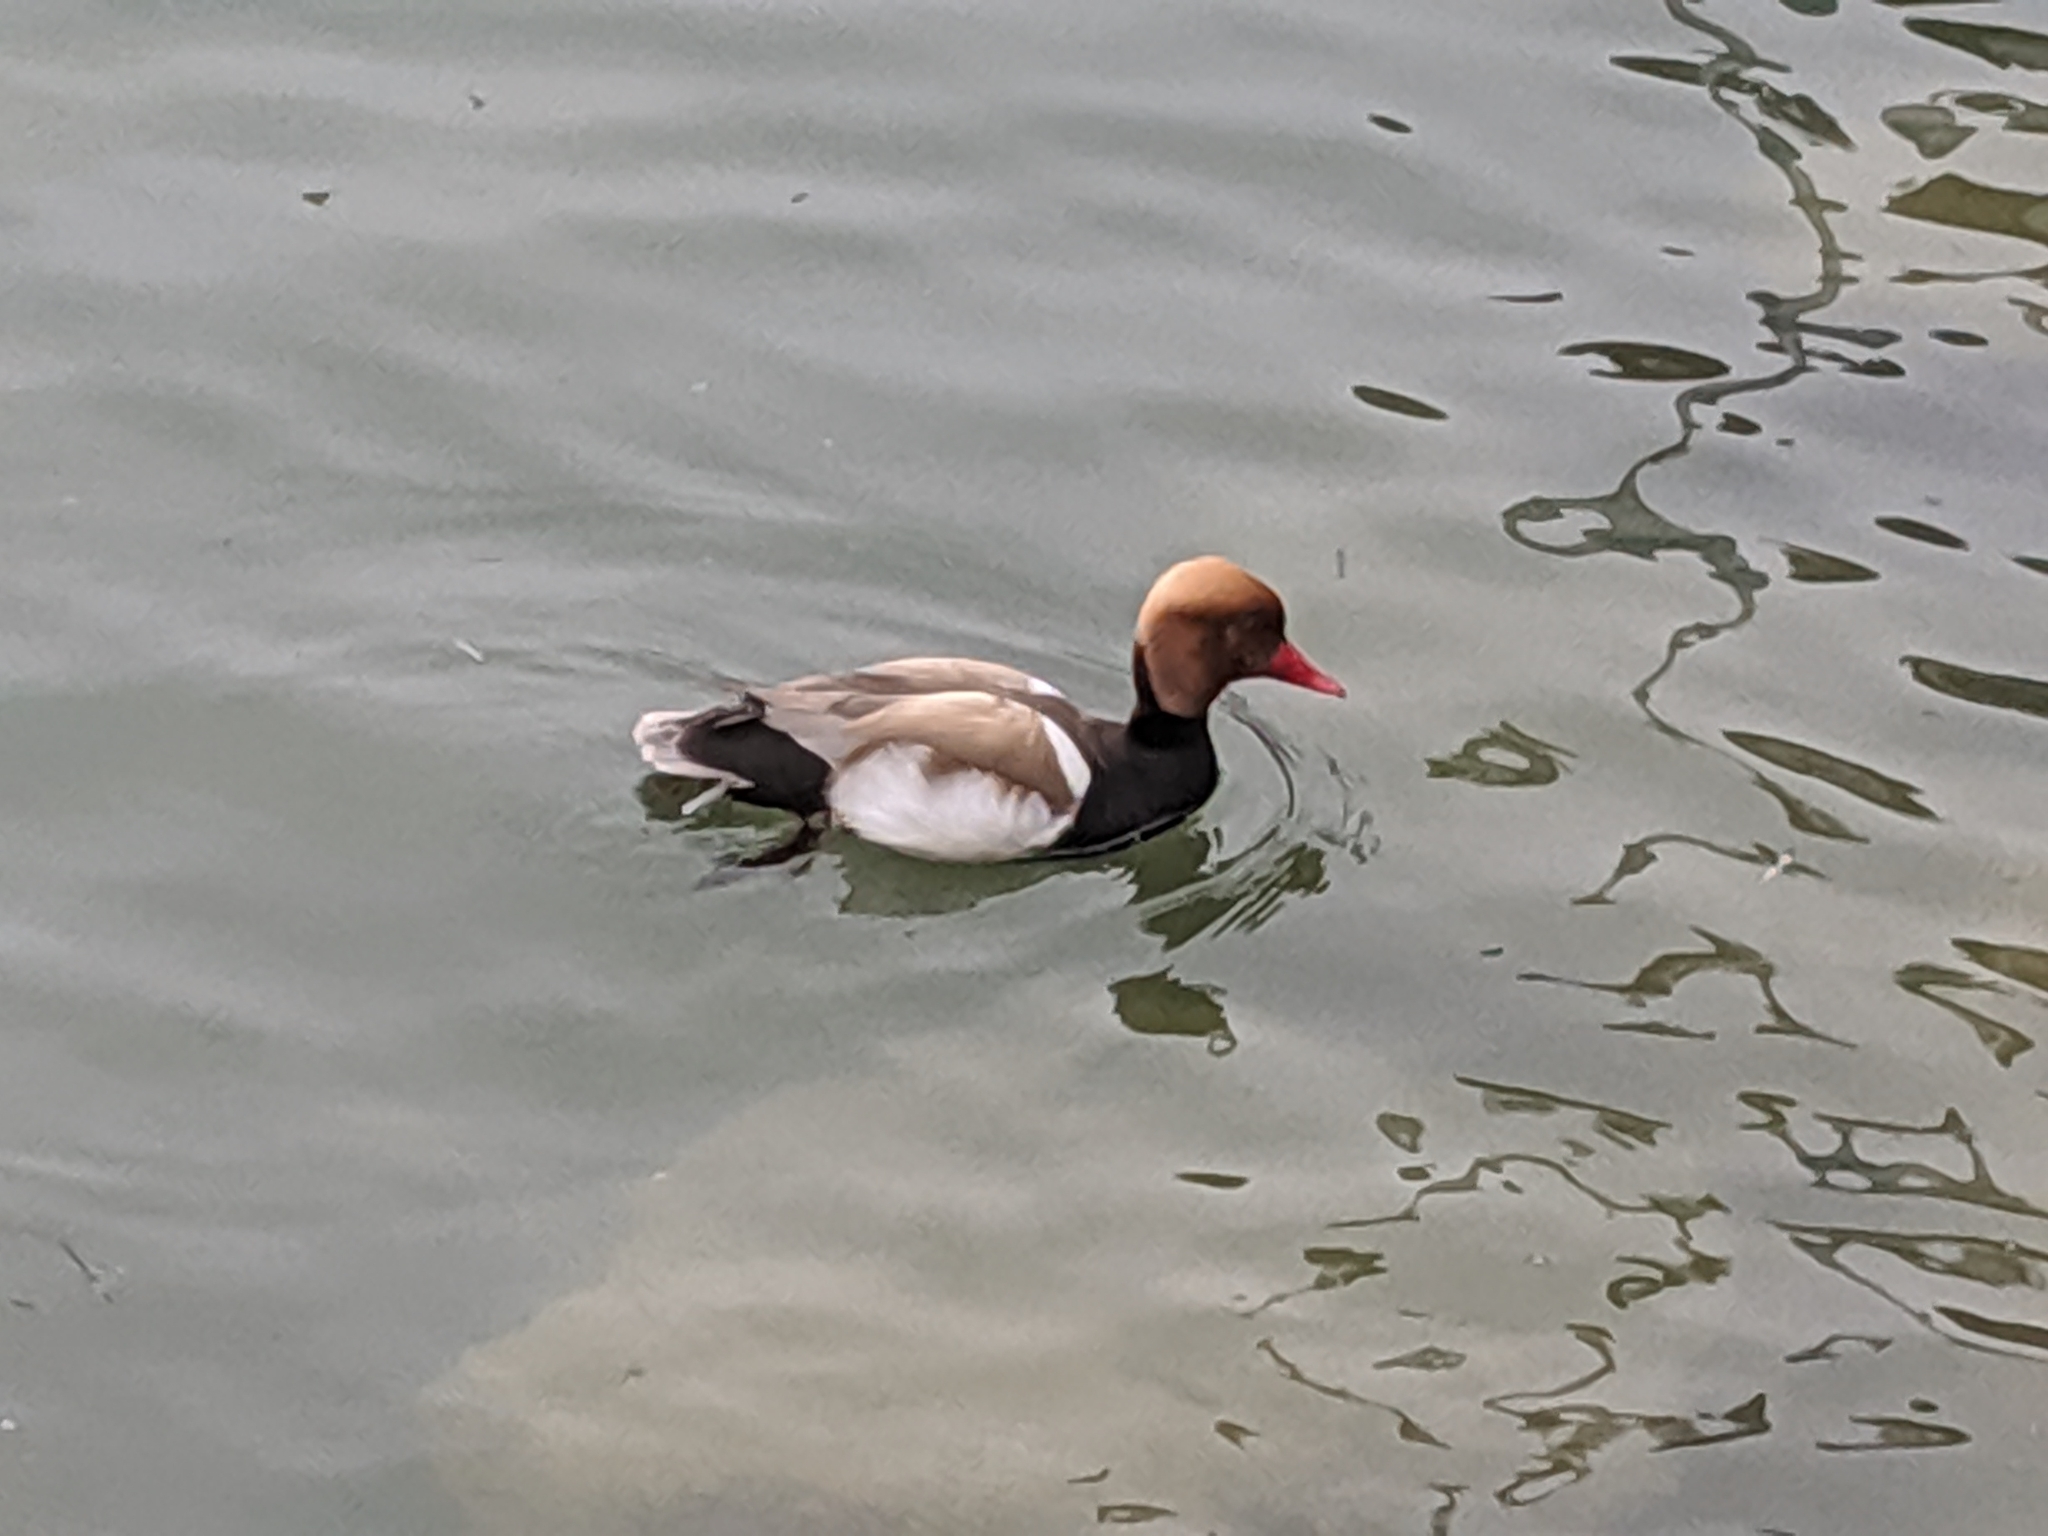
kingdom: Animalia
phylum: Chordata
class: Aves
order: Anseriformes
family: Anatidae
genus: Netta
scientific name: Netta rufina
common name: Red-crested pochard
